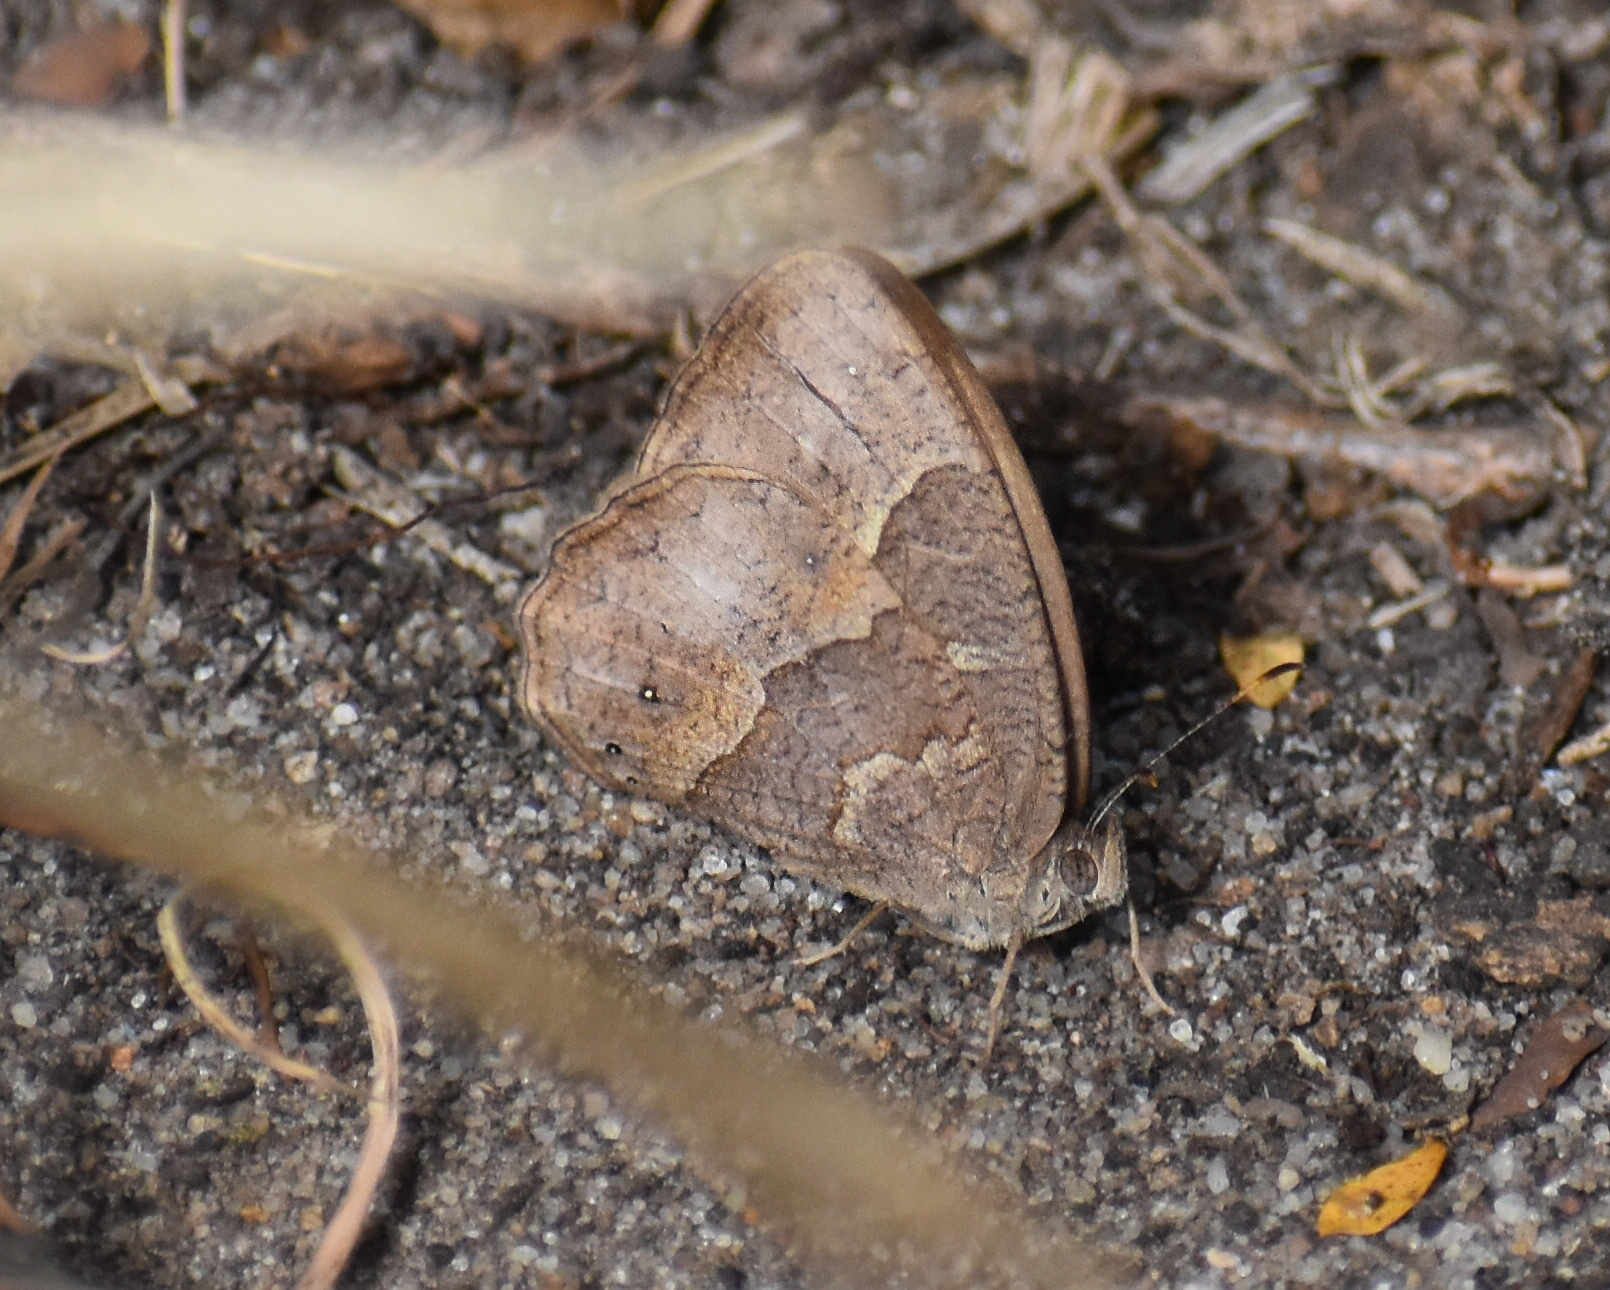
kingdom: Animalia
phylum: Arthropoda
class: Insecta
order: Lepidoptera
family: Nymphalidae
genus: Mycalesis
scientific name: Mycalesis anynana
